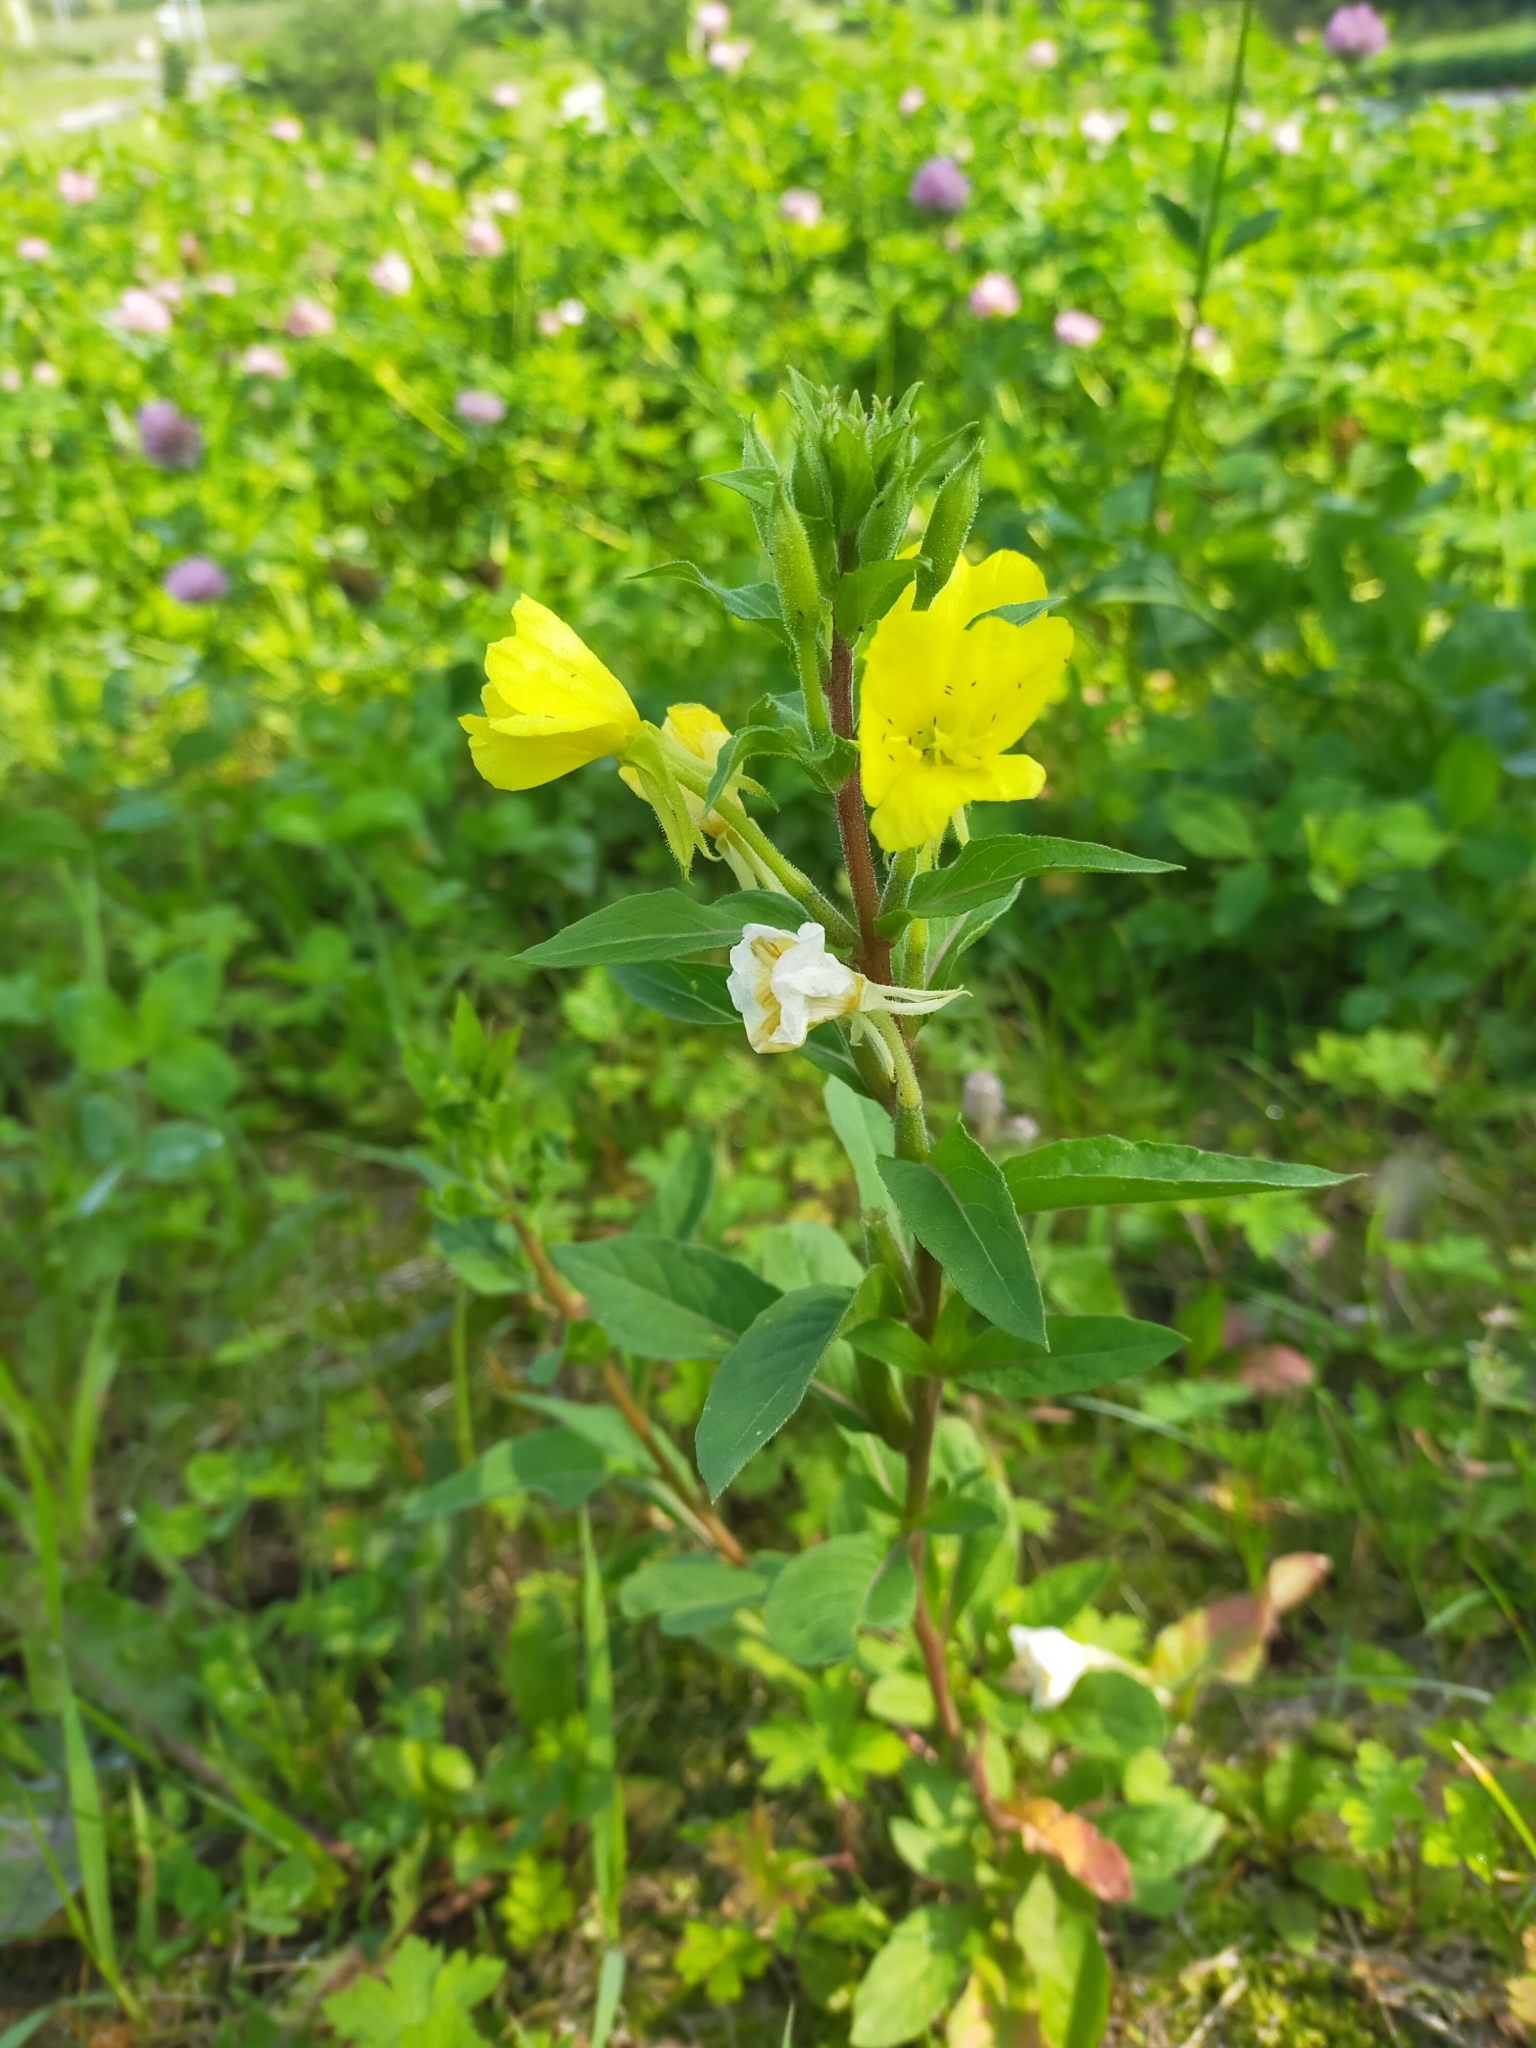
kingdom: Plantae
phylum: Tracheophyta
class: Magnoliopsida
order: Myrtales
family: Onagraceae
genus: Oenothera
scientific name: Oenothera rubricaulis
